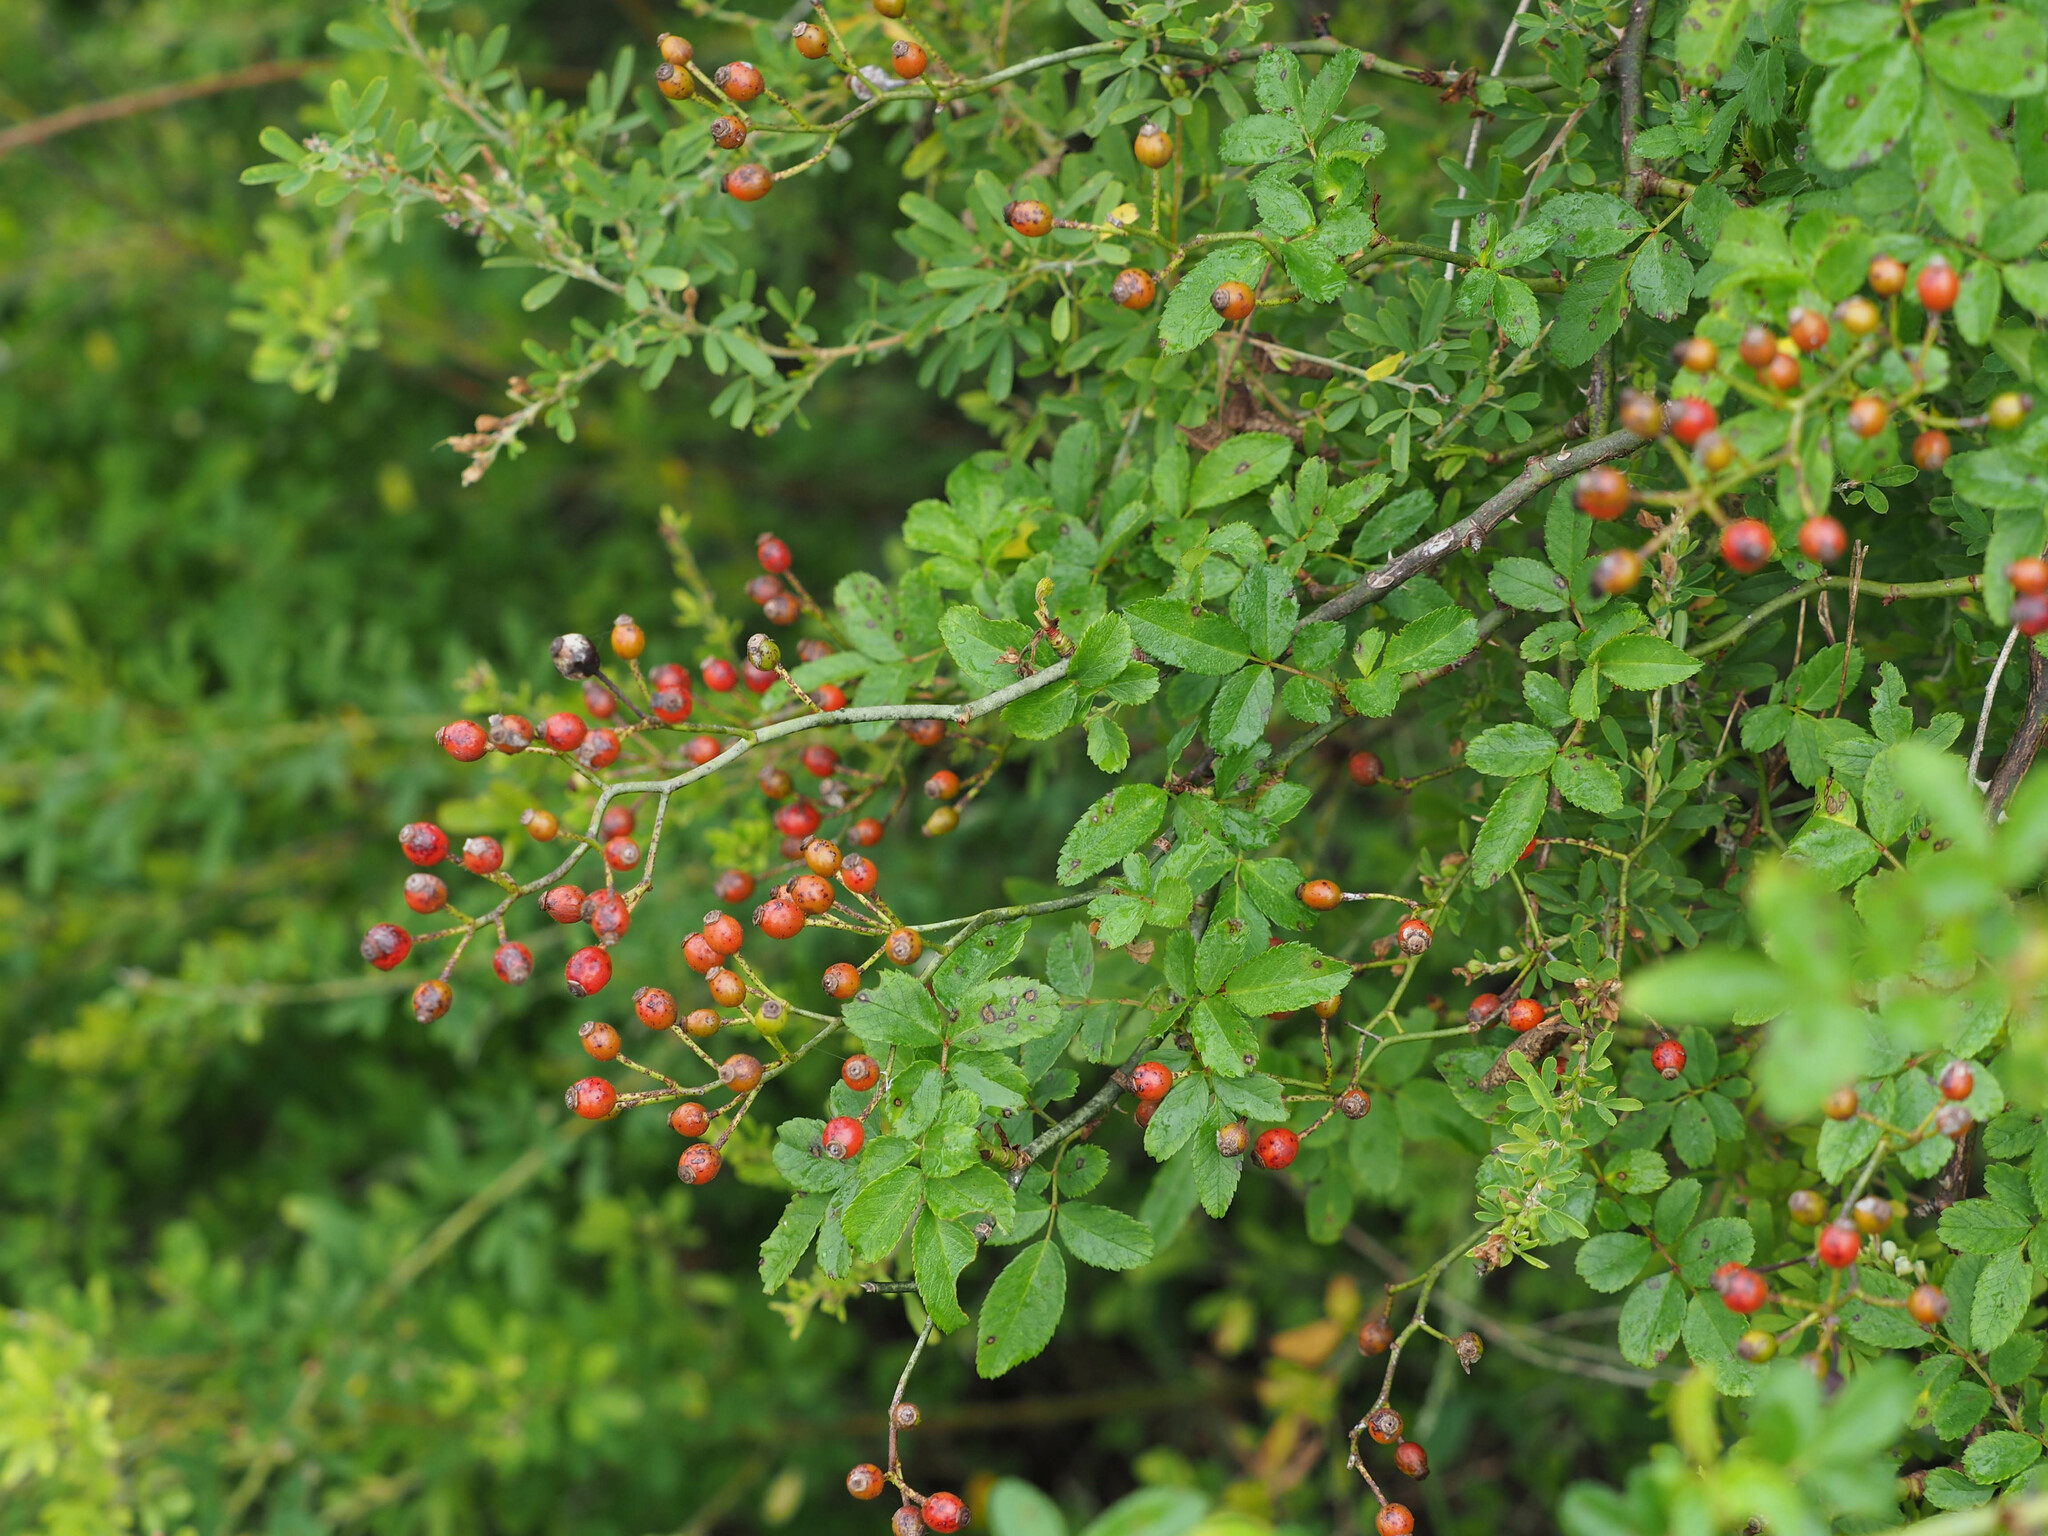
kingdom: Plantae
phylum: Tracheophyta
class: Magnoliopsida
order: Rosales
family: Rosaceae
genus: Rosa
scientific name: Rosa multiflora
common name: Multiflora rose
